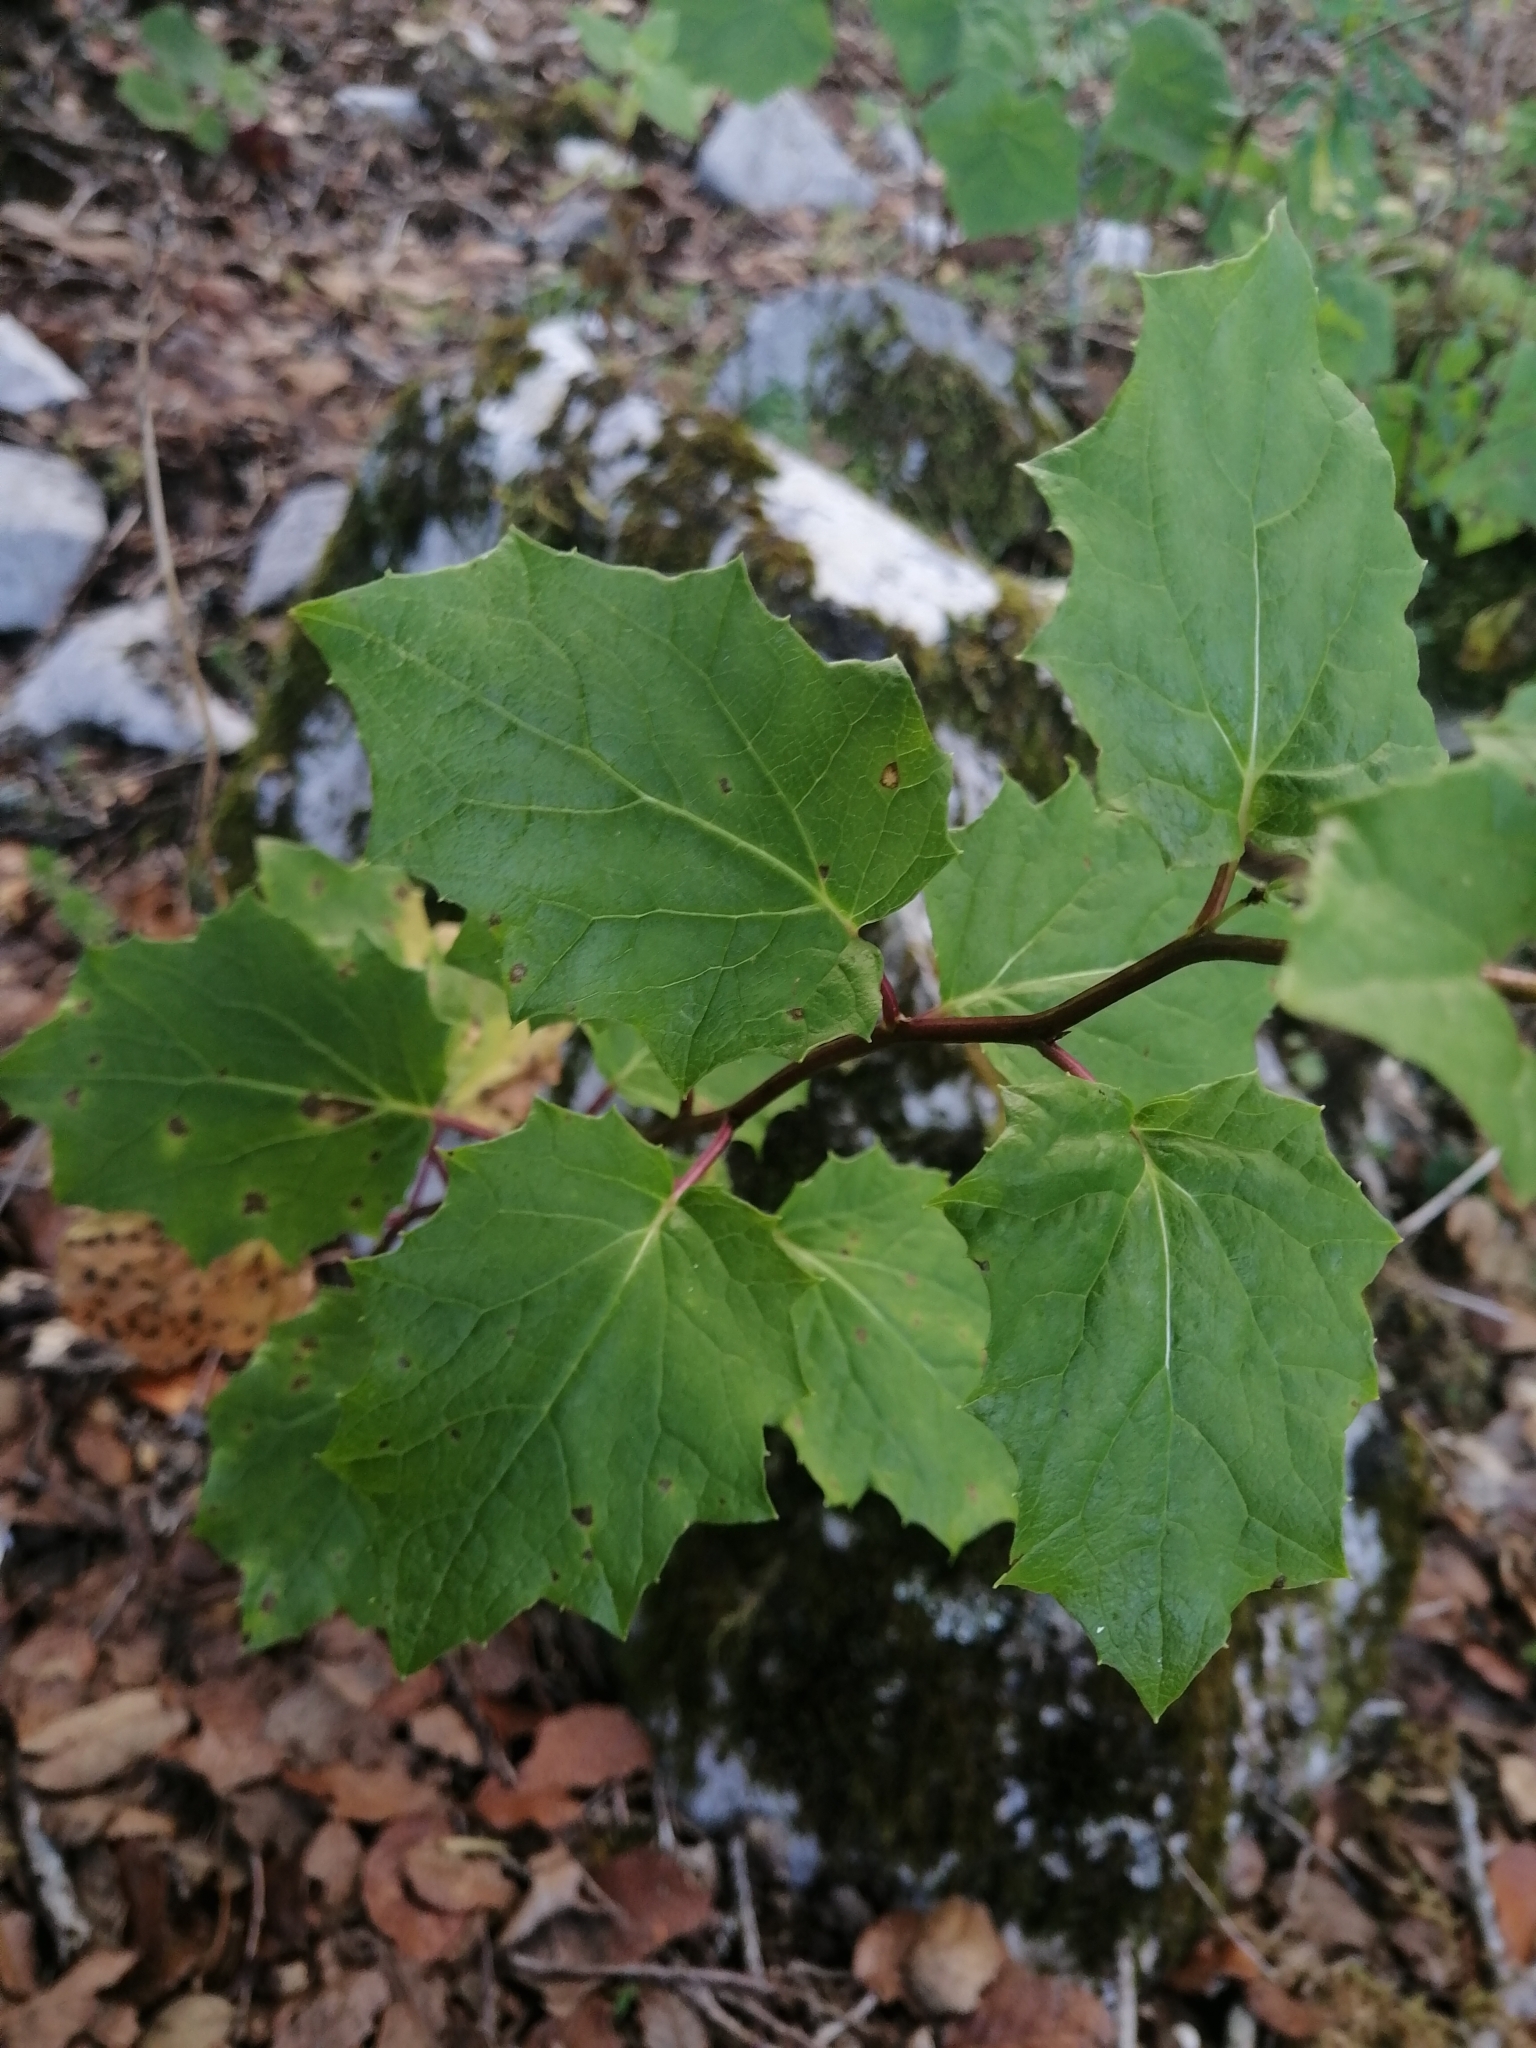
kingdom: Plantae
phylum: Tracheophyta
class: Magnoliopsida
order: Asterales
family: Asteraceae
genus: Roldana
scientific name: Roldana reticulata
